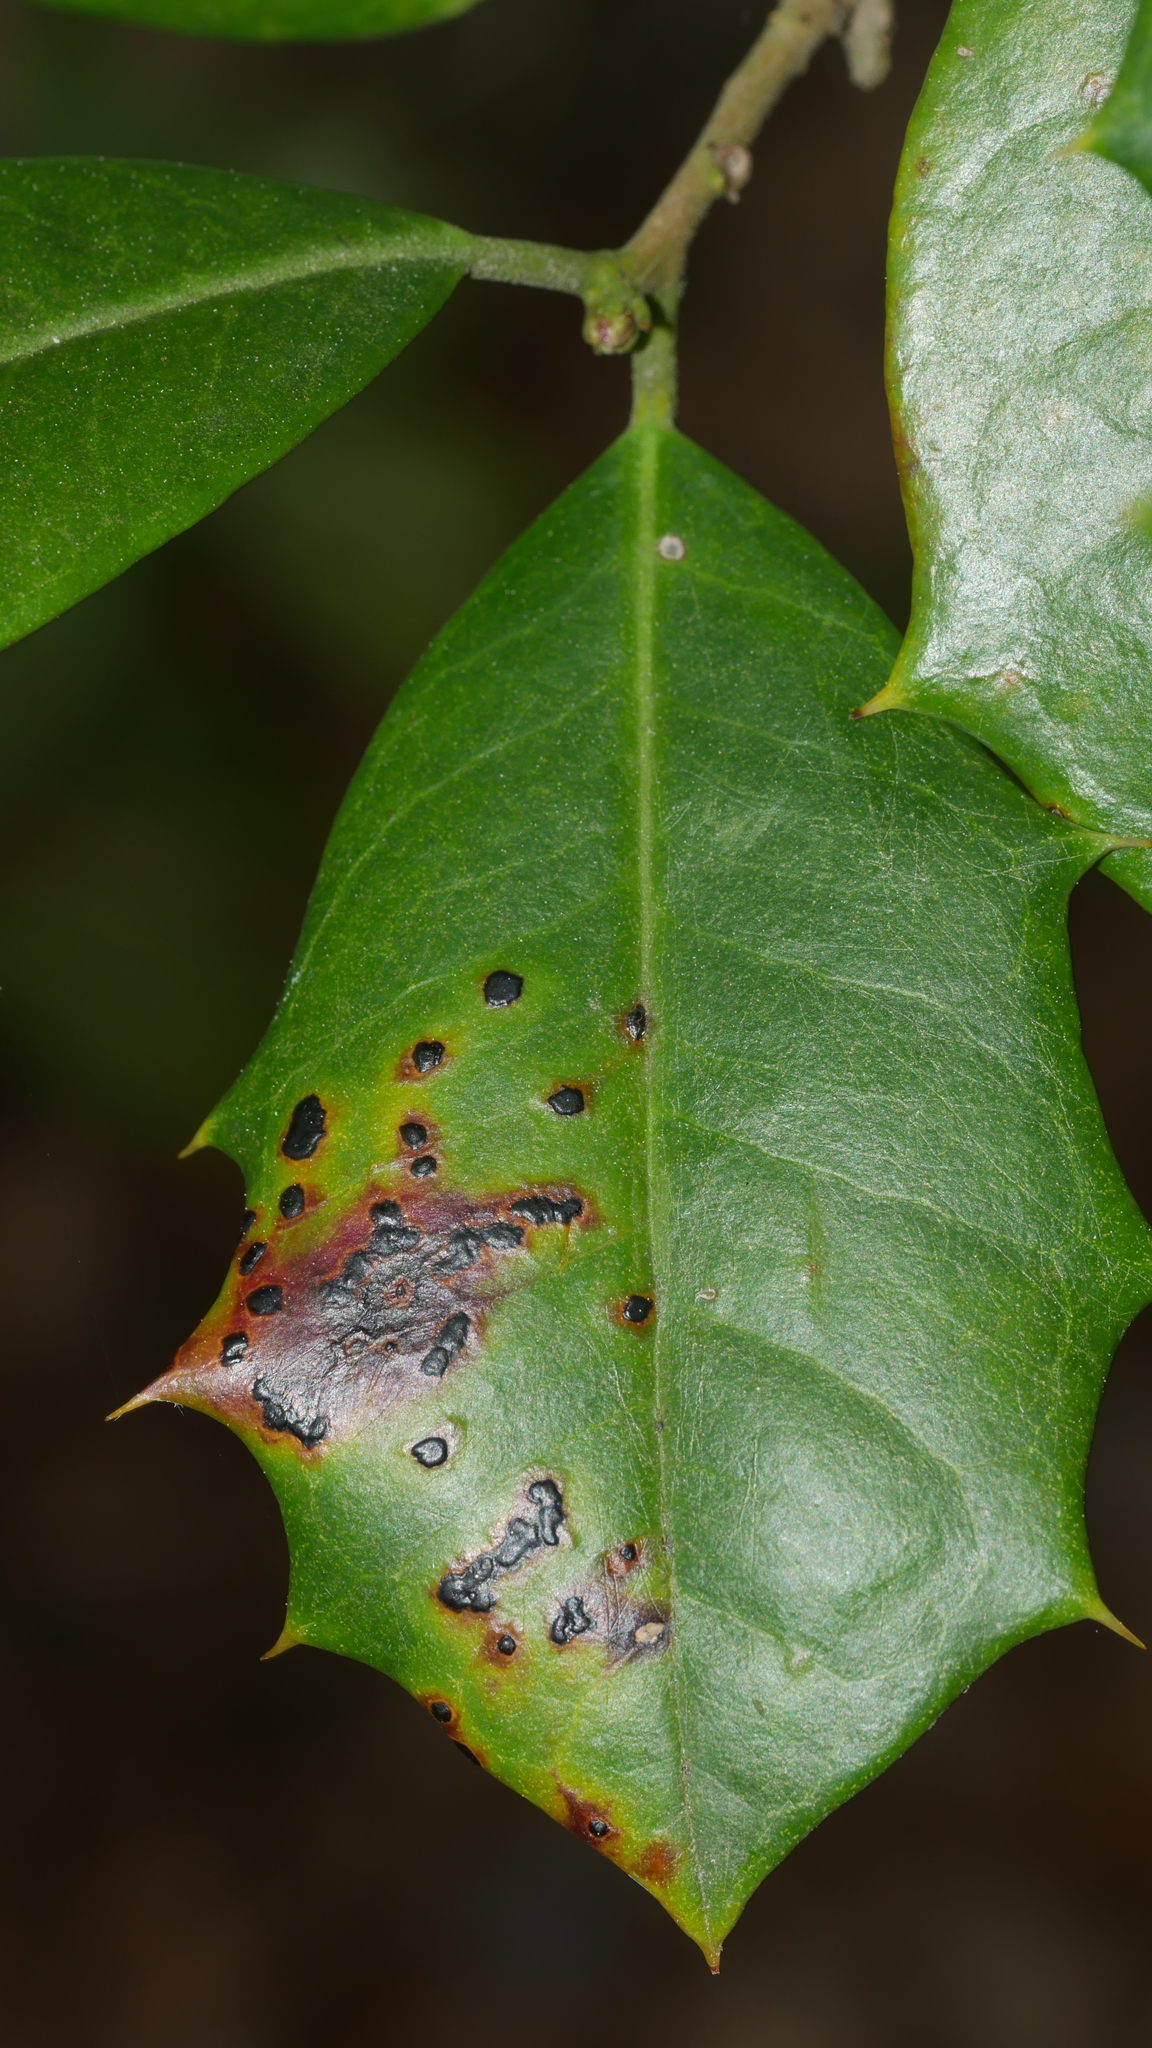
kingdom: Fungi
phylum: Ascomycota
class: Leotiomycetes
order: Rhytismatales
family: Rhytismataceae
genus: Macroderma
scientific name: Macroderma curtisii
